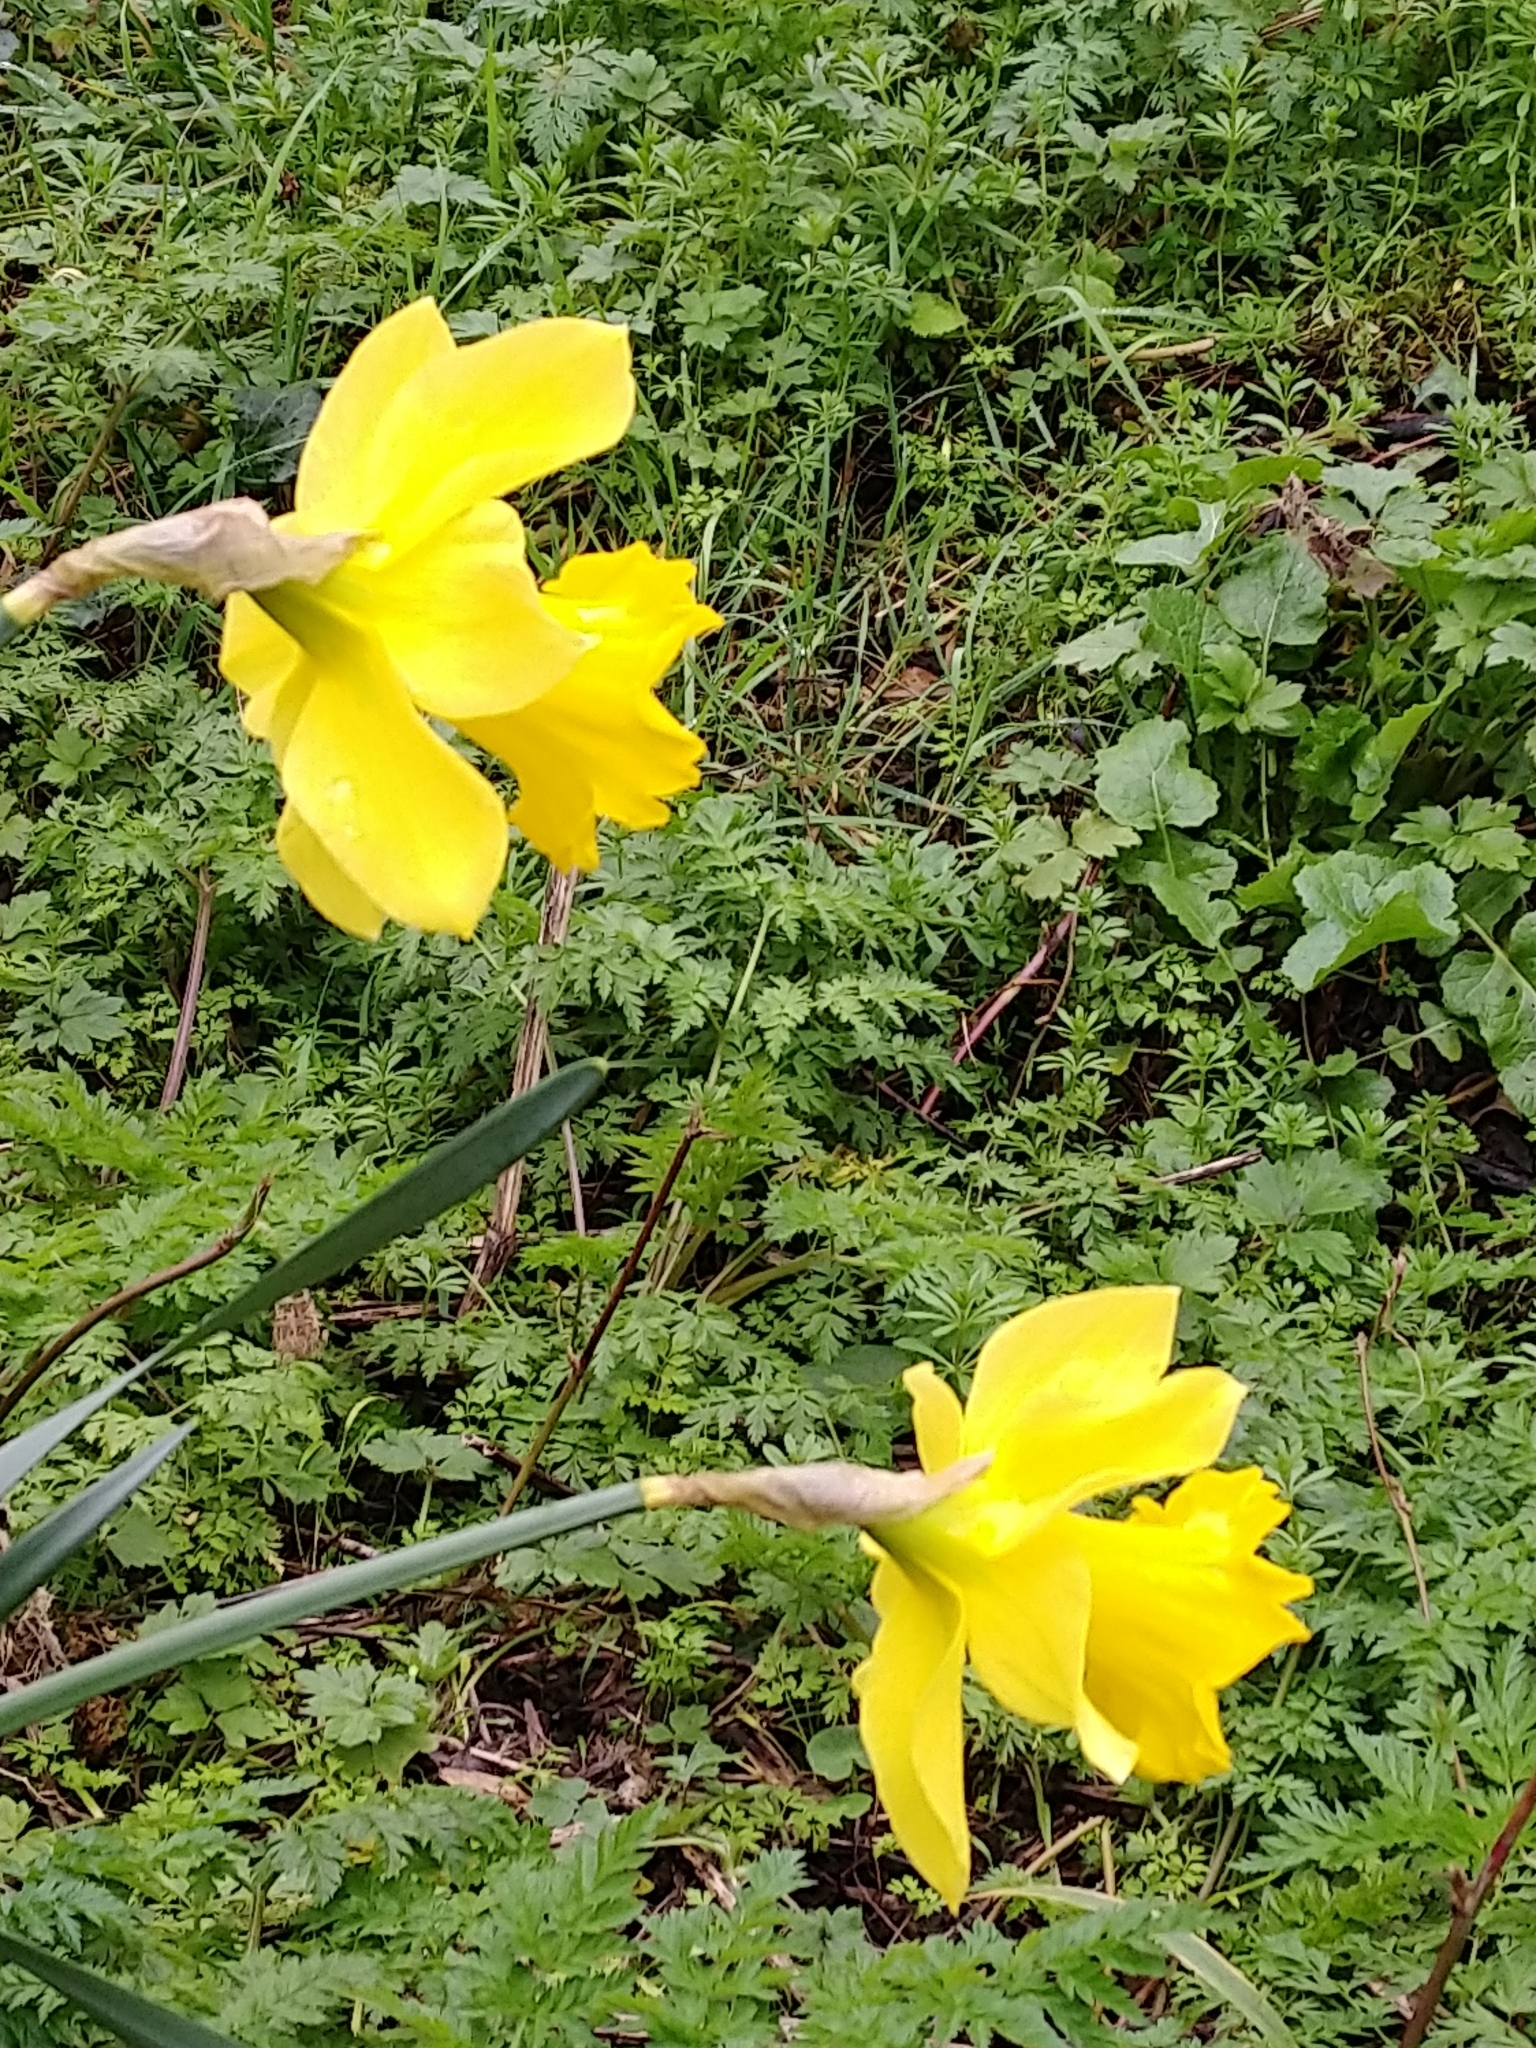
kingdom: Plantae
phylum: Tracheophyta
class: Liliopsida
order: Asparagales
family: Amaryllidaceae
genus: Narcissus
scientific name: Narcissus
